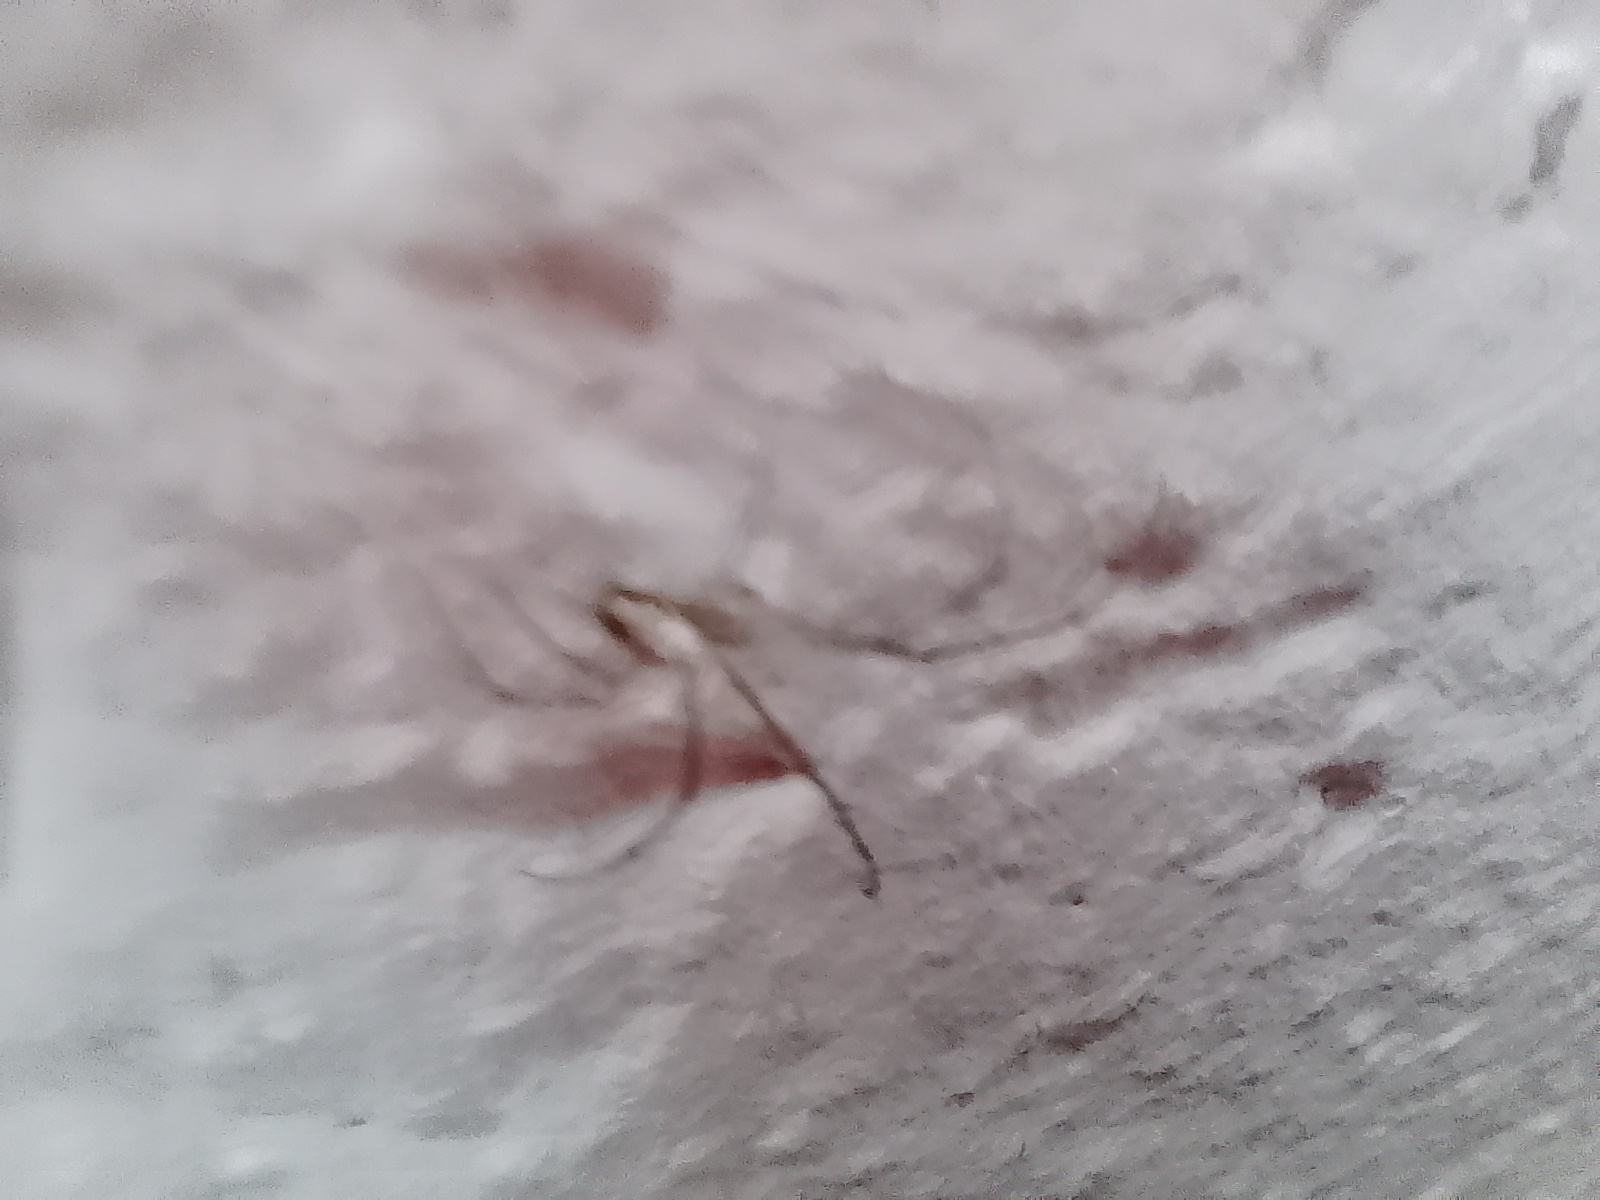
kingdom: Animalia
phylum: Arthropoda
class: Arachnida
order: Araneae
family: Tetragnathidae
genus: Leucauge
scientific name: Leucauge volupis
